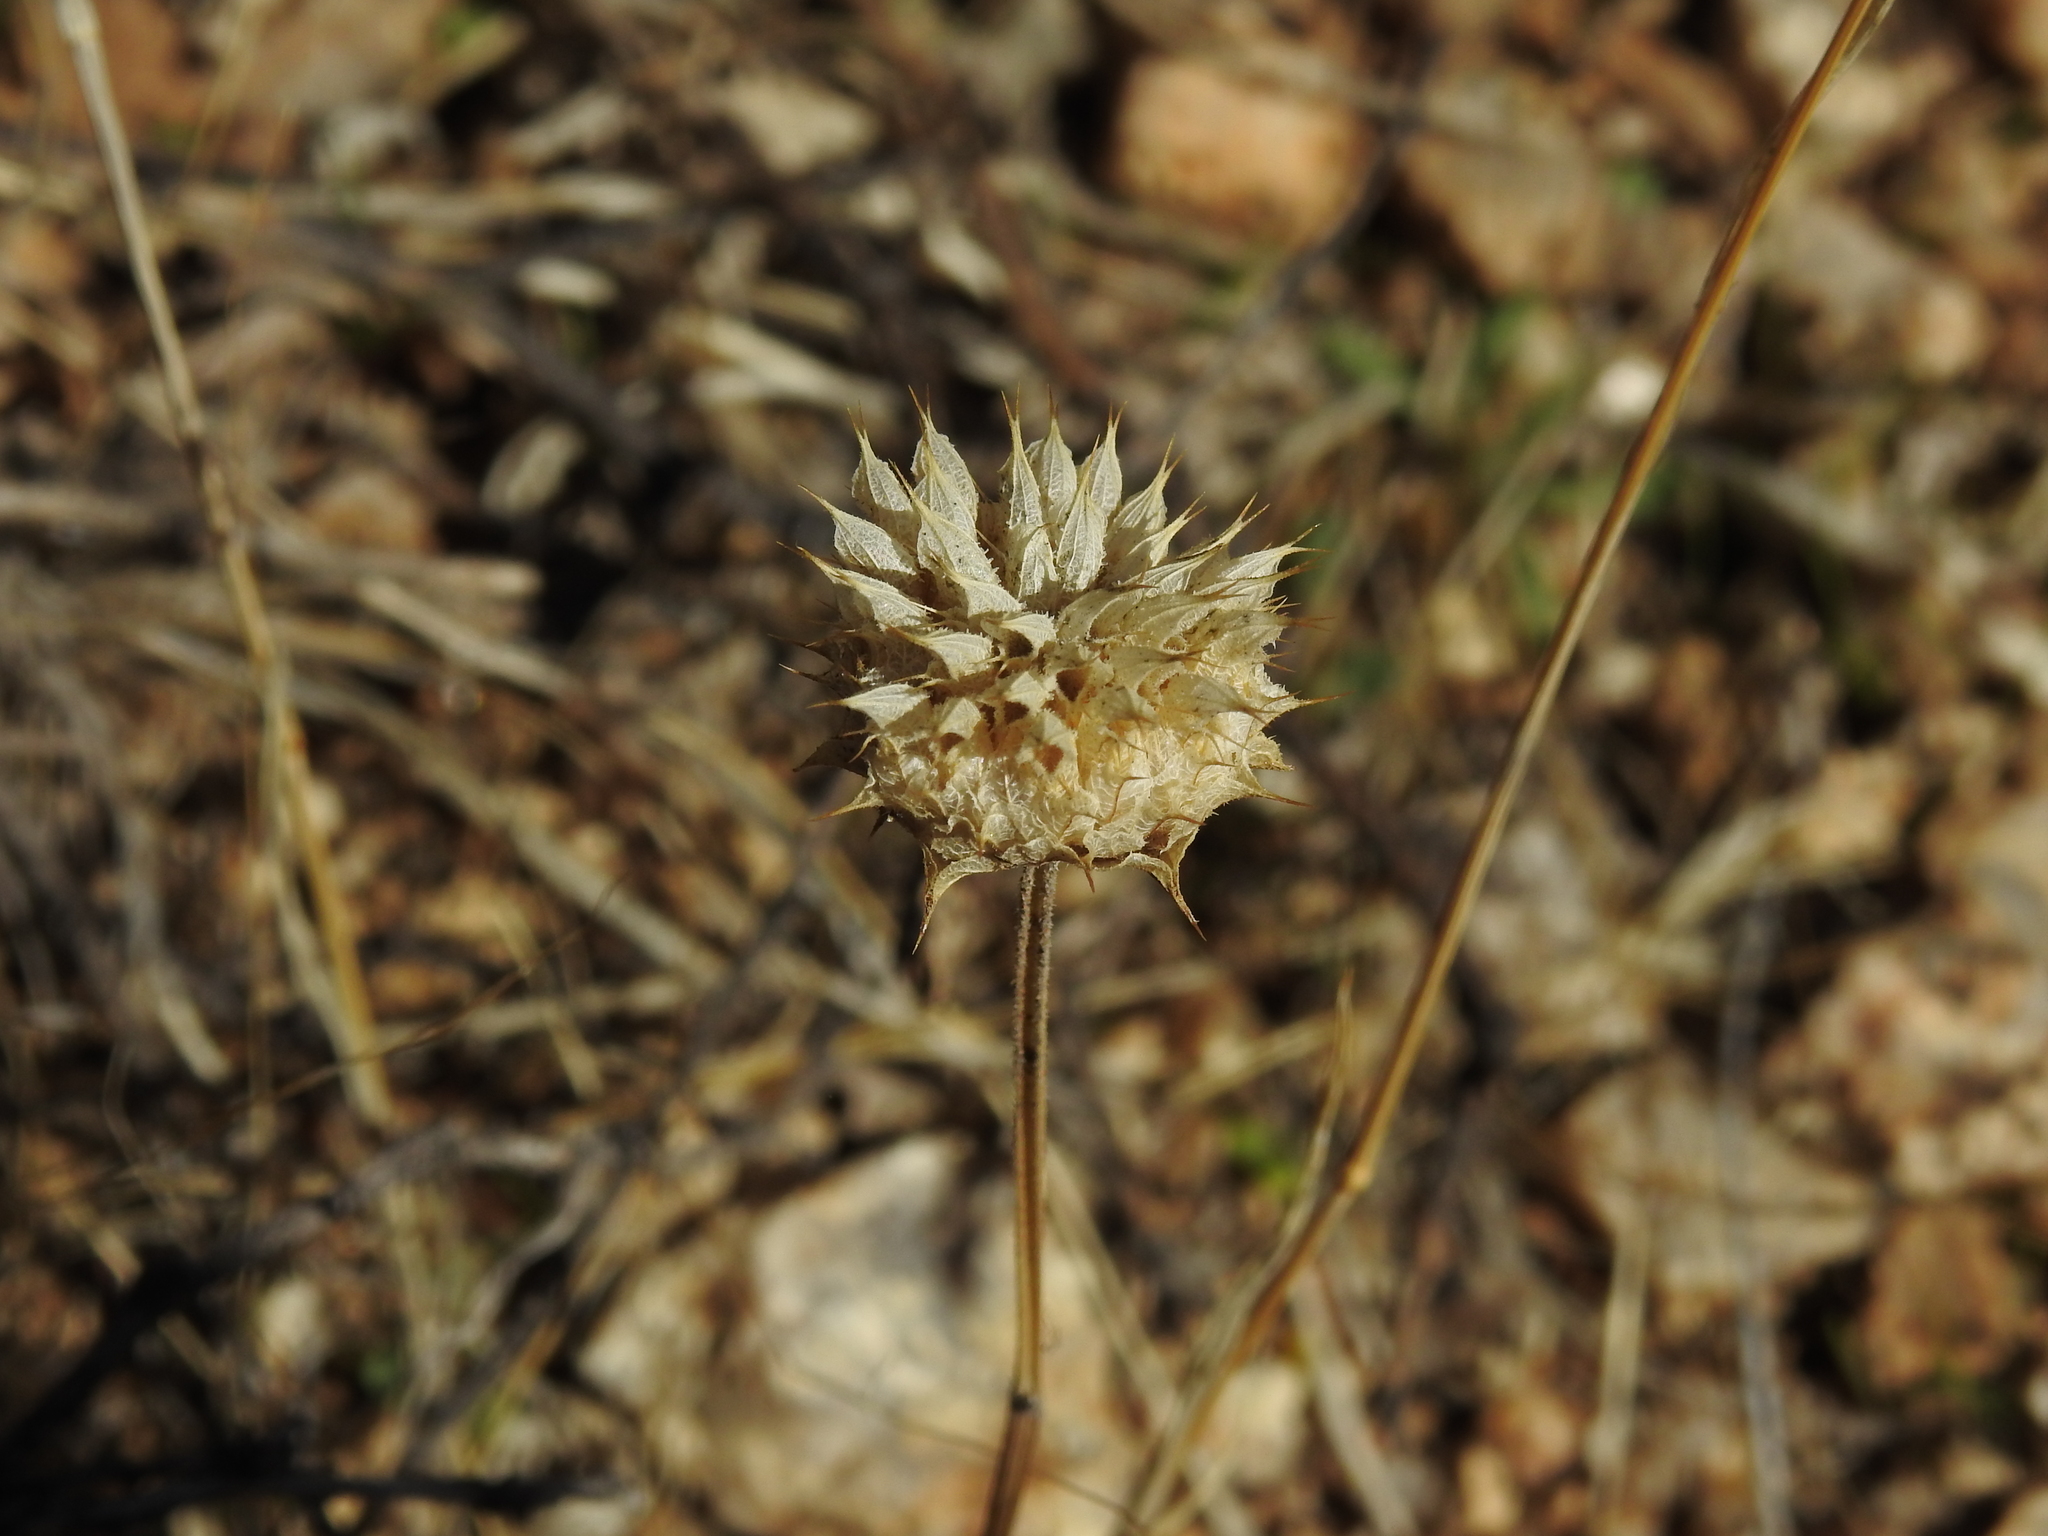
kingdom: Plantae
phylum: Tracheophyta
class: Magnoliopsida
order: Lamiales
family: Lamiaceae
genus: Salvia
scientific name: Salvia columbariae
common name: Chia
